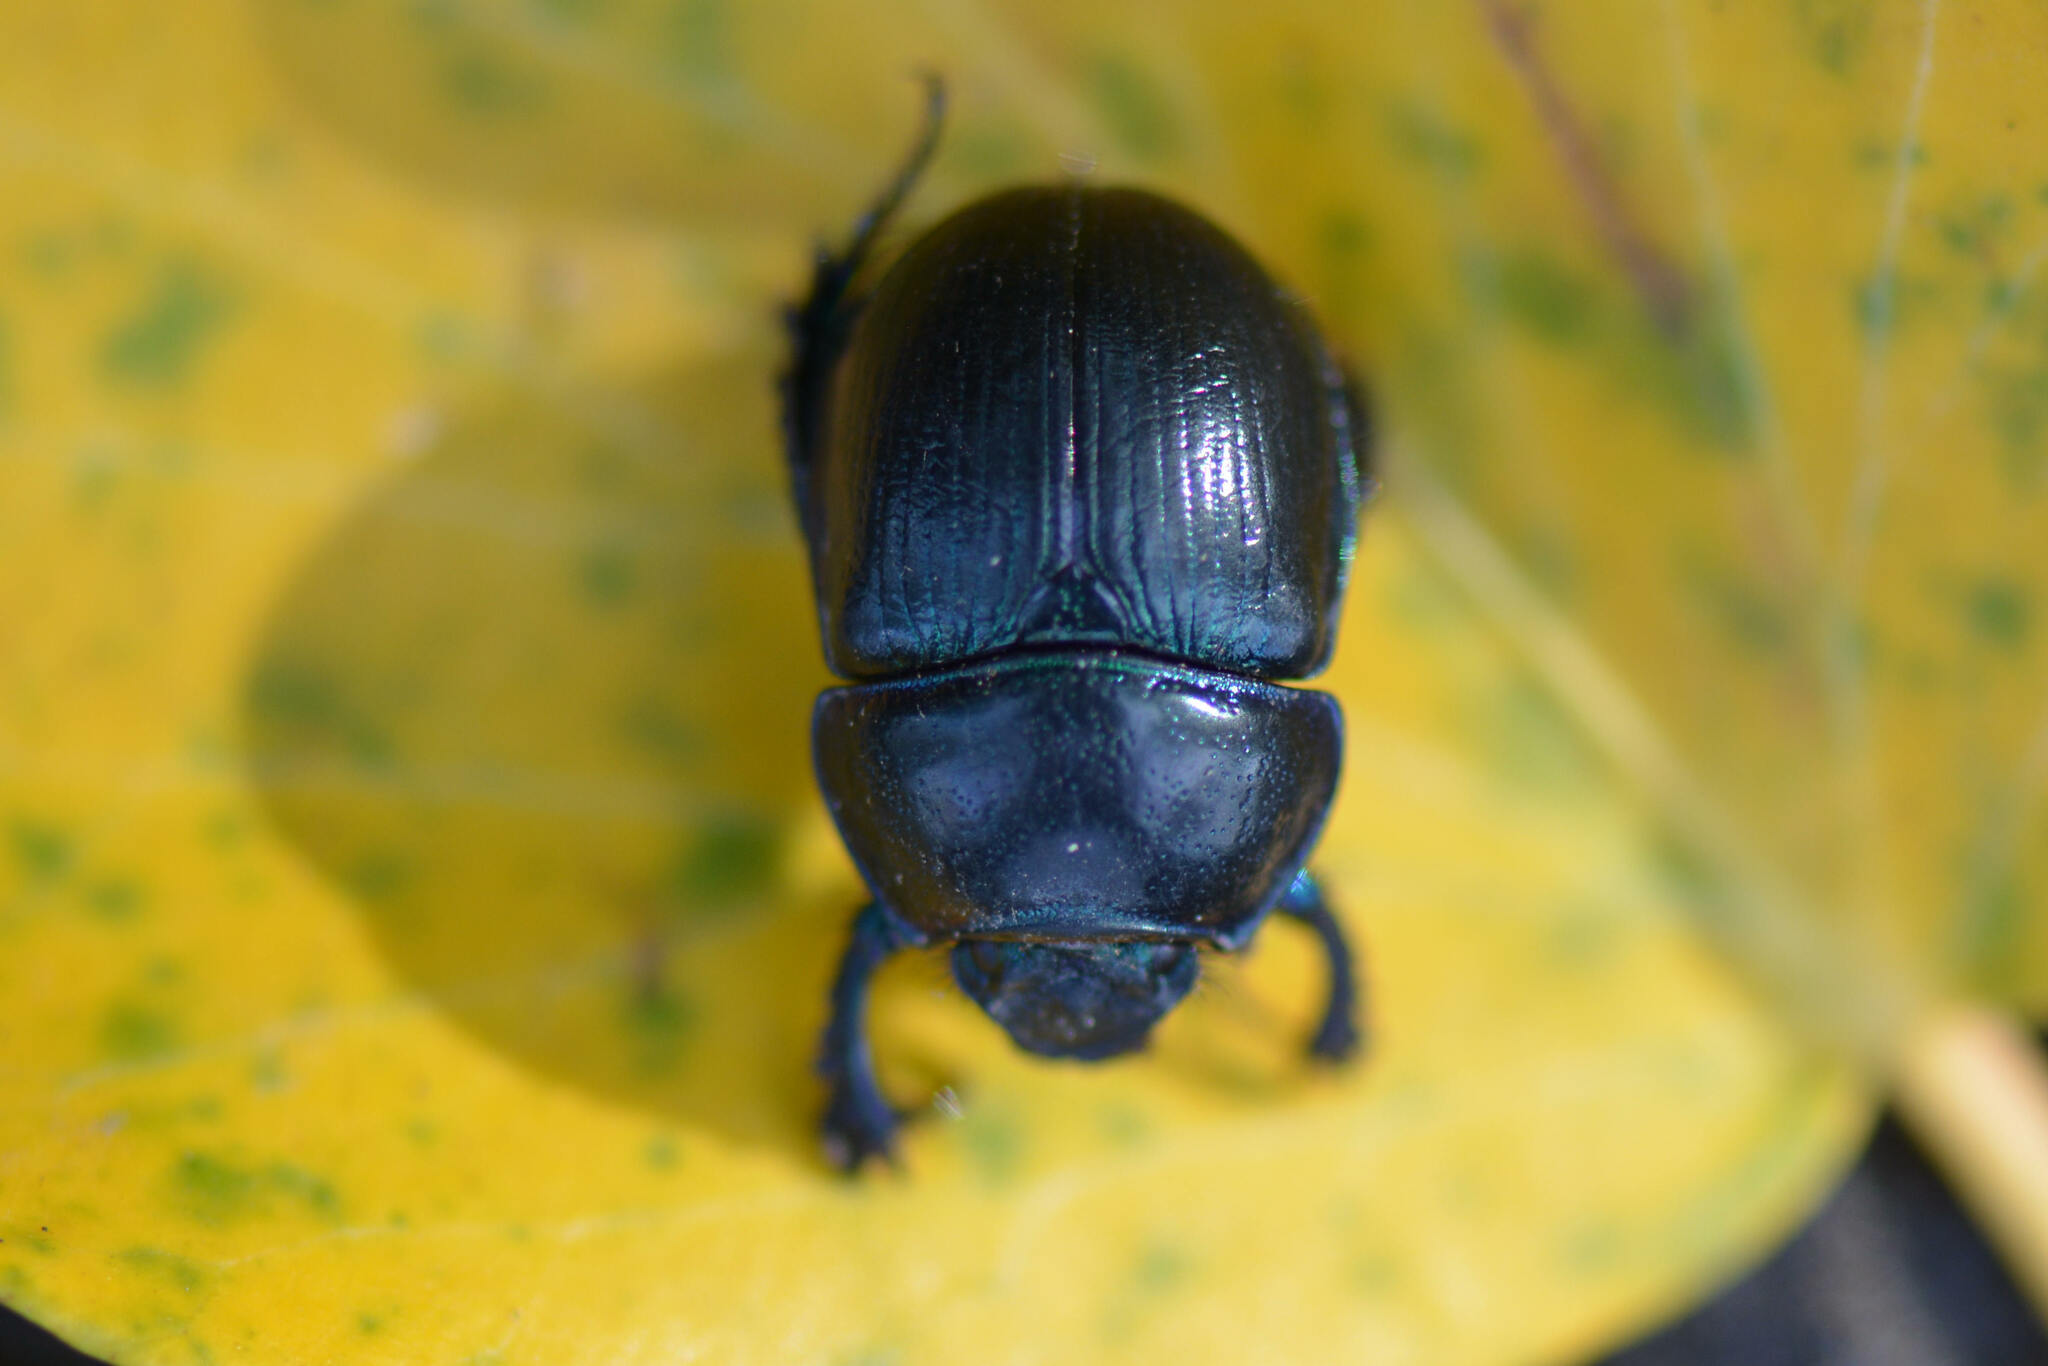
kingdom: Animalia
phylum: Arthropoda
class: Insecta
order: Coleoptera
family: Geotrupidae
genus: Anoplotrupes
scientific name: Anoplotrupes stercorosus
